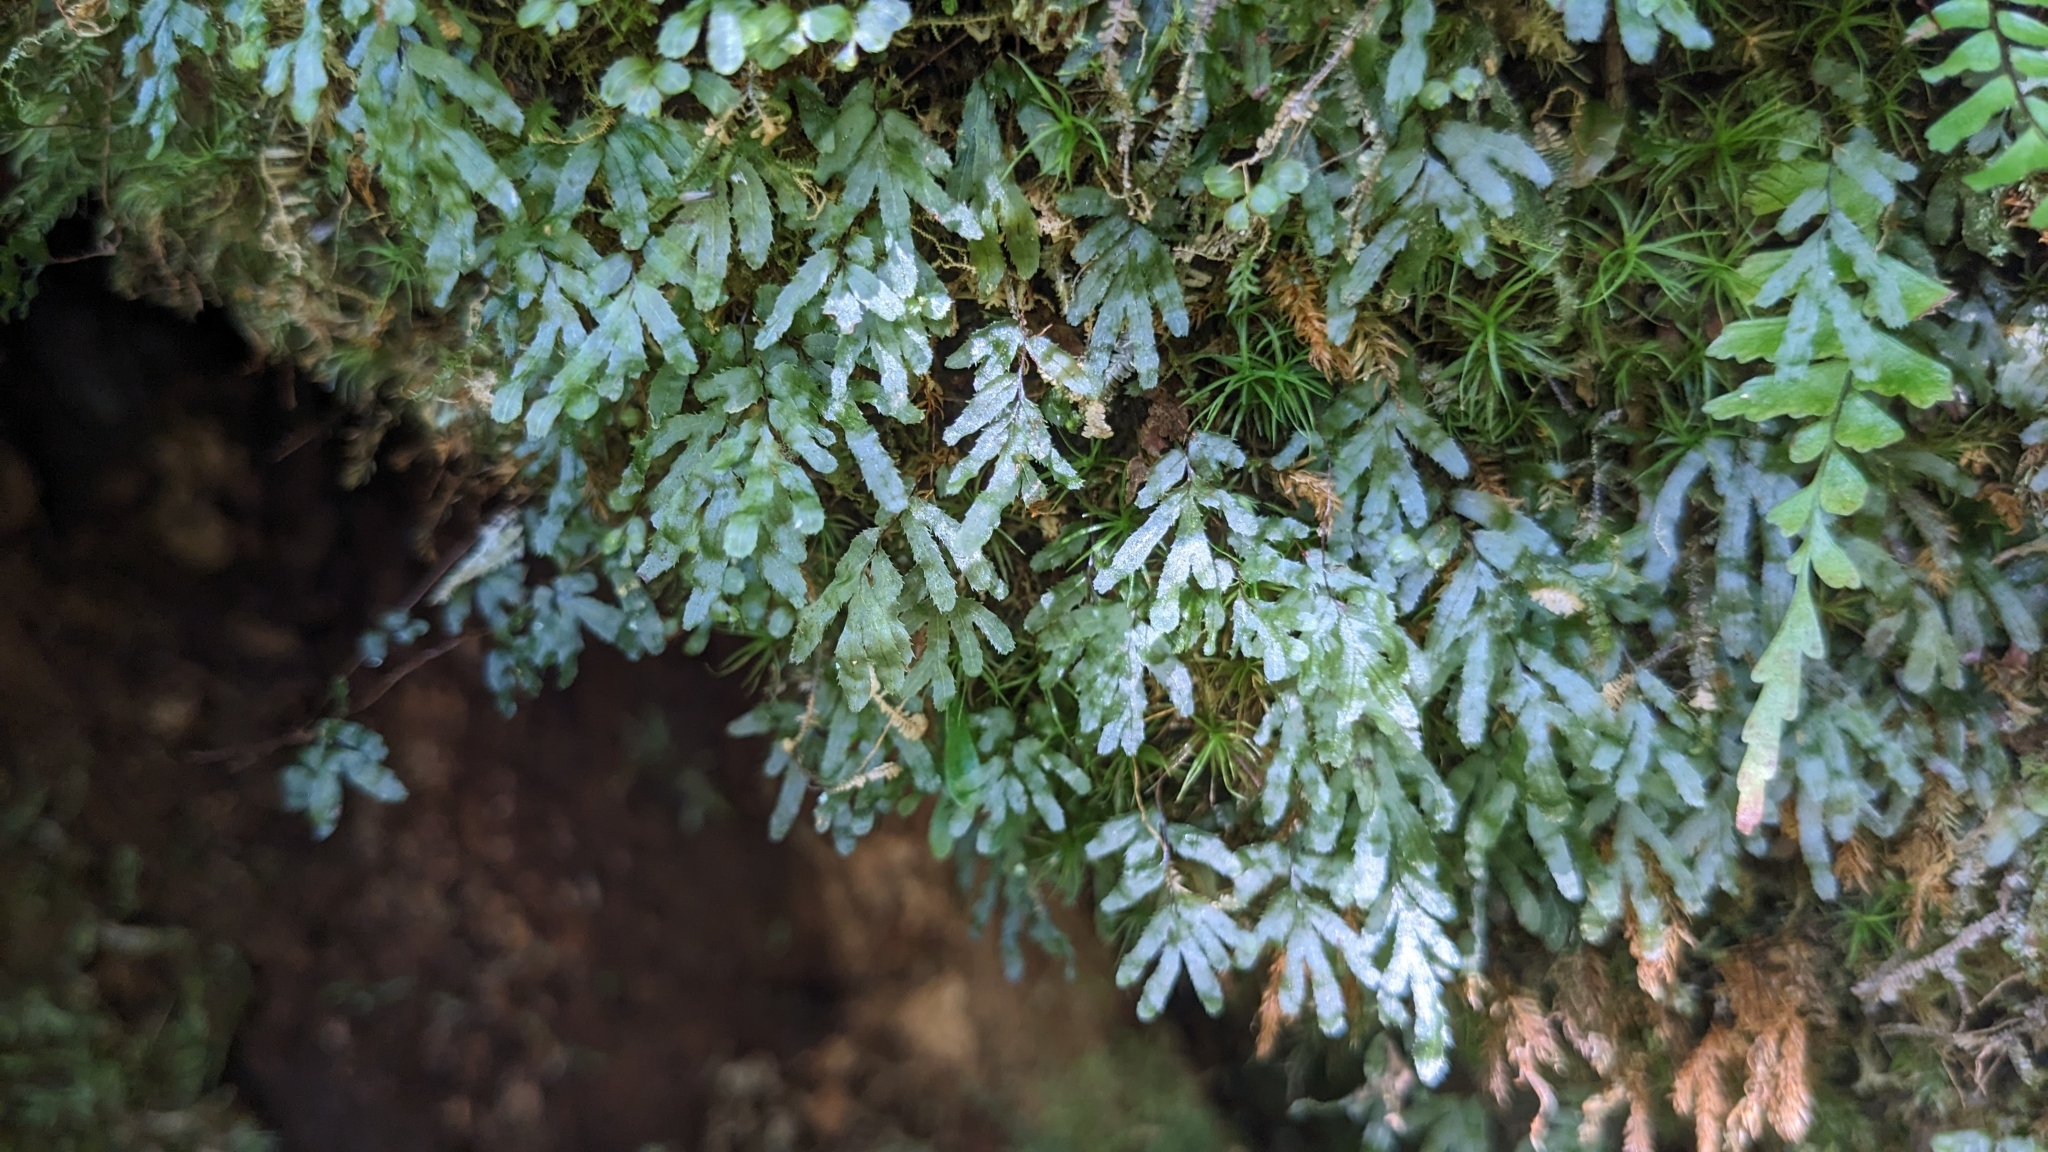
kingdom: Plantae
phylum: Tracheophyta
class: Polypodiopsida
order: Hymenophyllales
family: Hymenophyllaceae
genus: Hymenophyllum
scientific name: Hymenophyllum blandum
